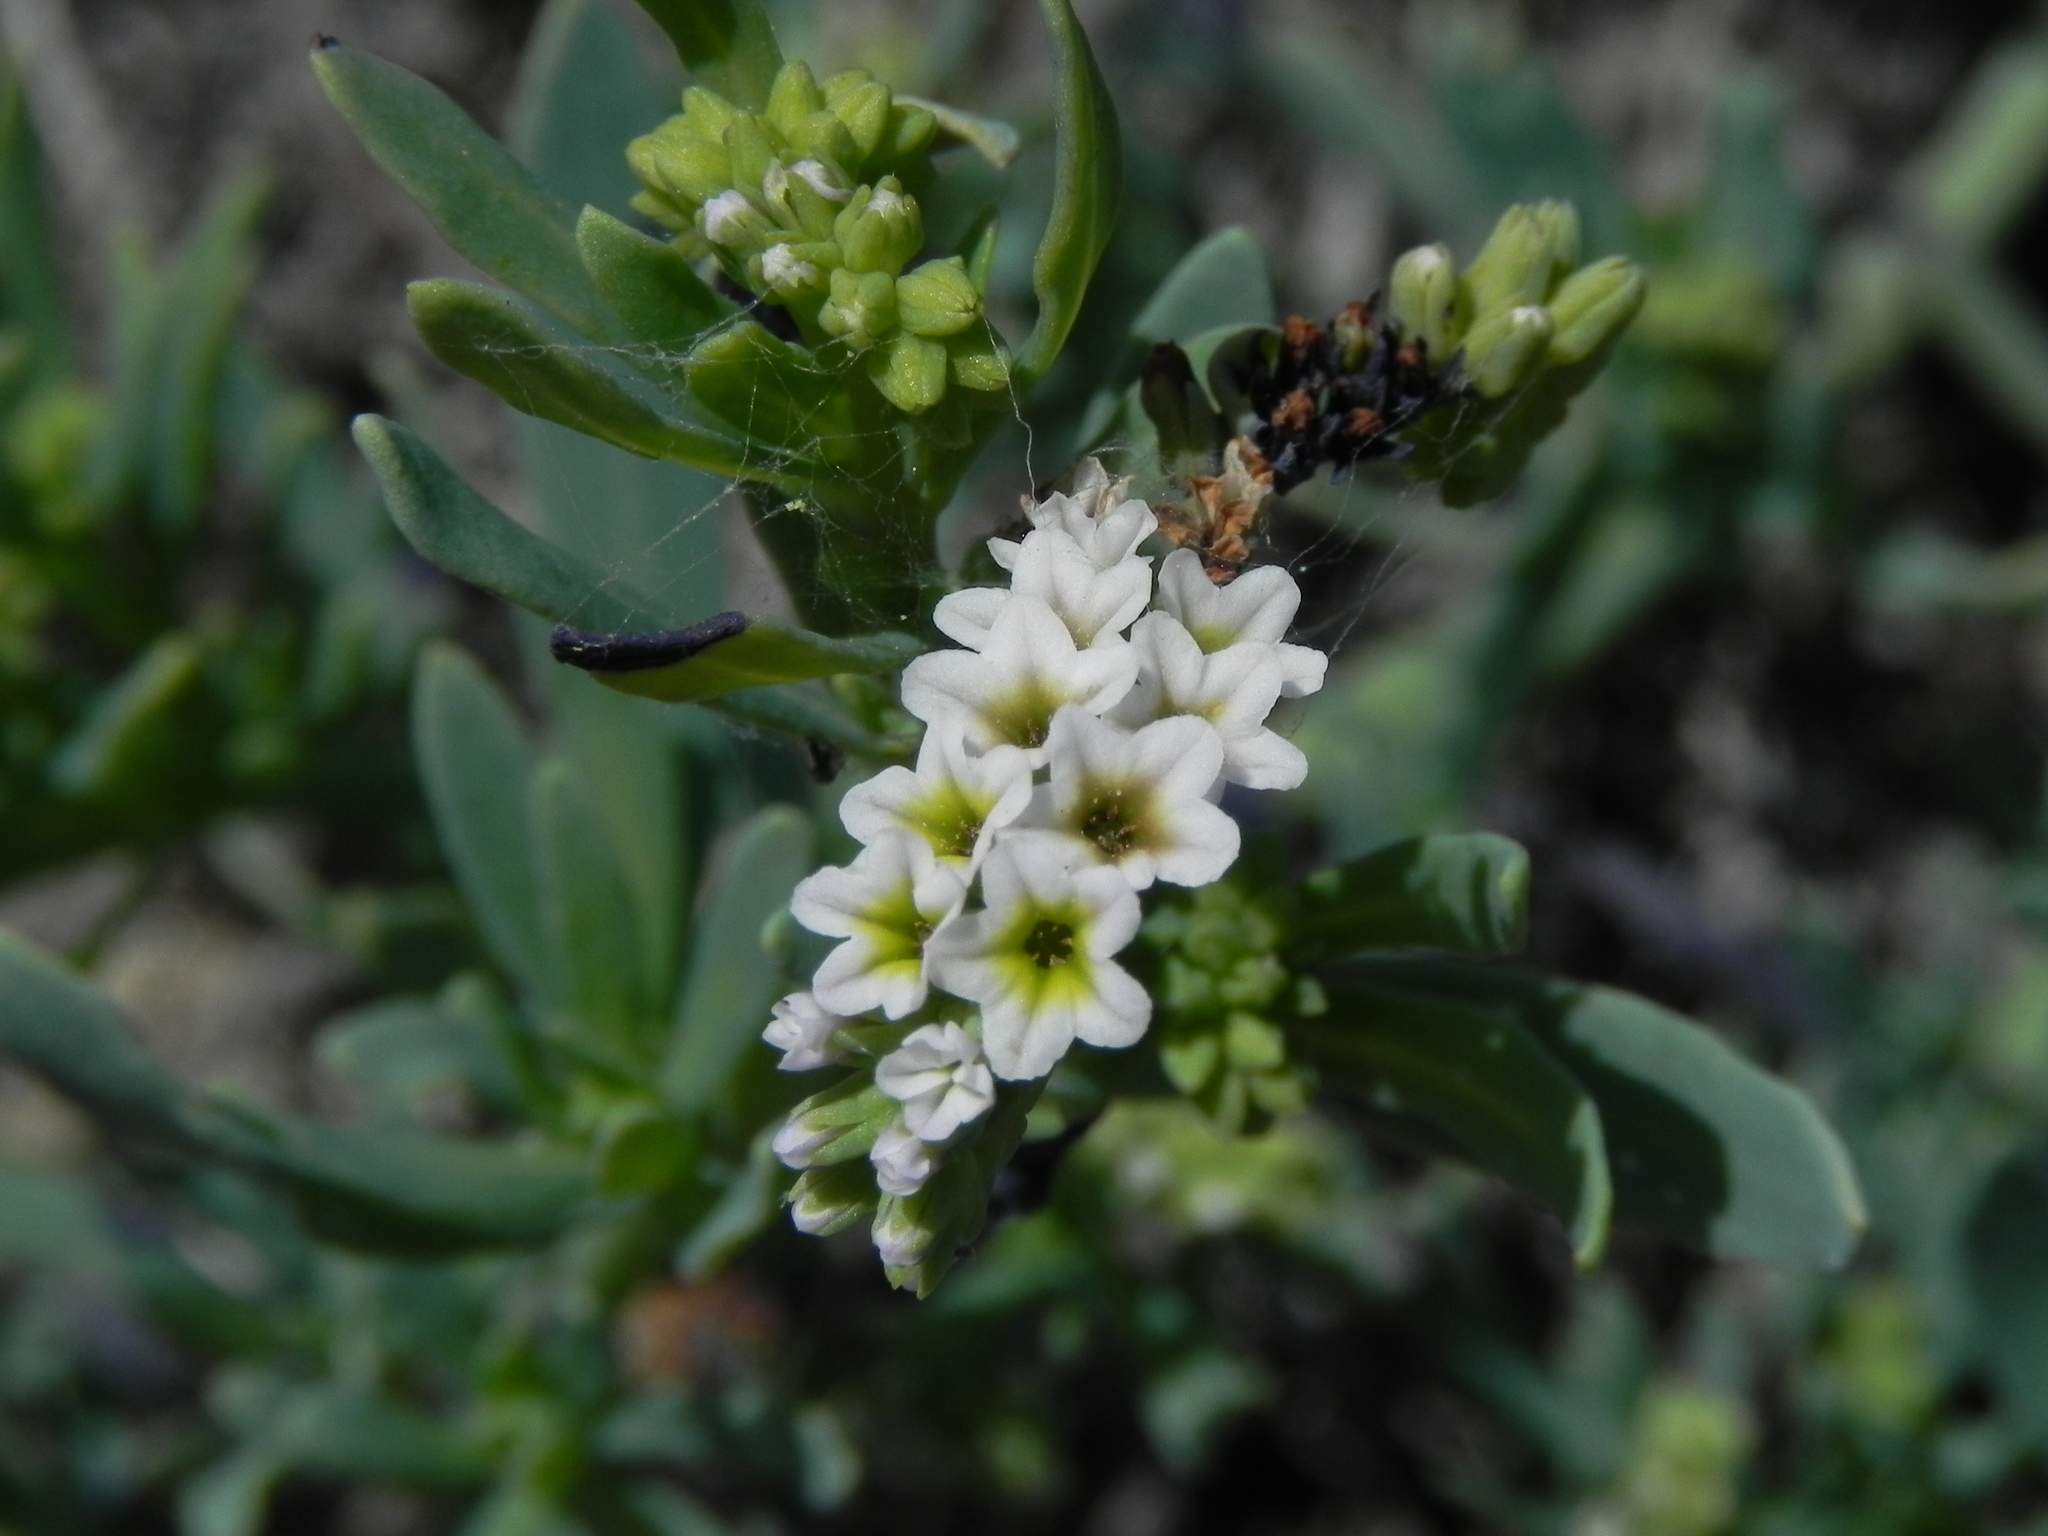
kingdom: Plantae
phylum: Tracheophyta
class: Magnoliopsida
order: Boraginales
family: Heliotropiaceae
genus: Heliotropium
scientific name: Heliotropium curassavicum
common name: Seaside heliotrope
